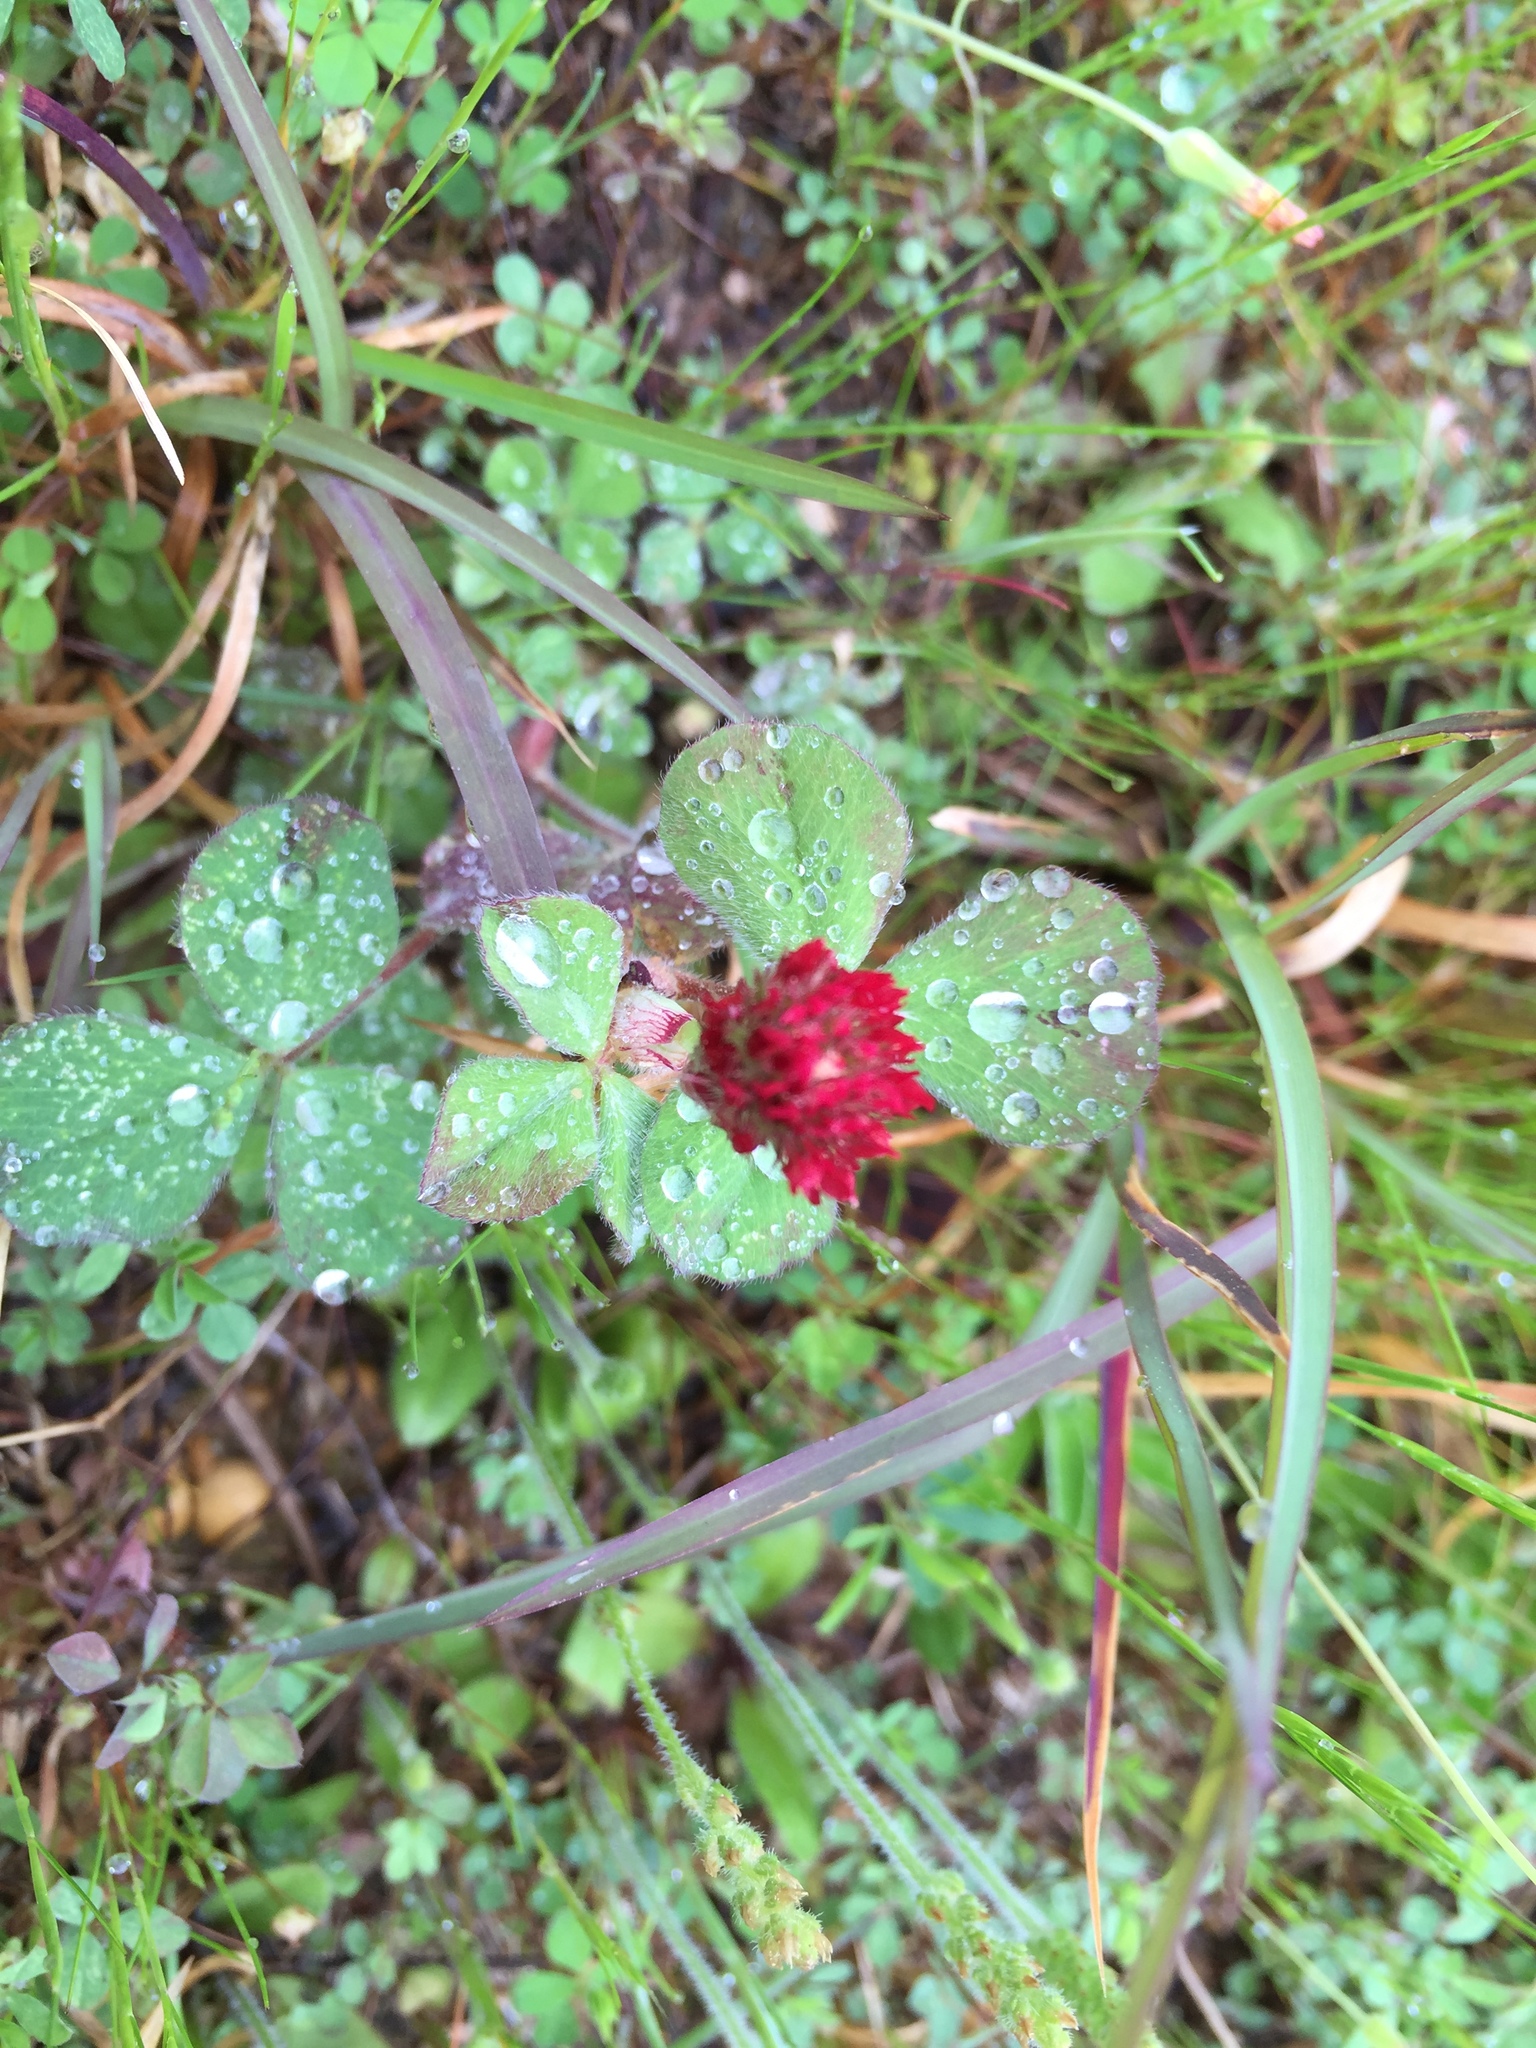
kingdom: Plantae
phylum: Tracheophyta
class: Magnoliopsida
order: Fabales
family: Fabaceae
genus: Trifolium
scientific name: Trifolium incarnatum
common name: Crimson clover
